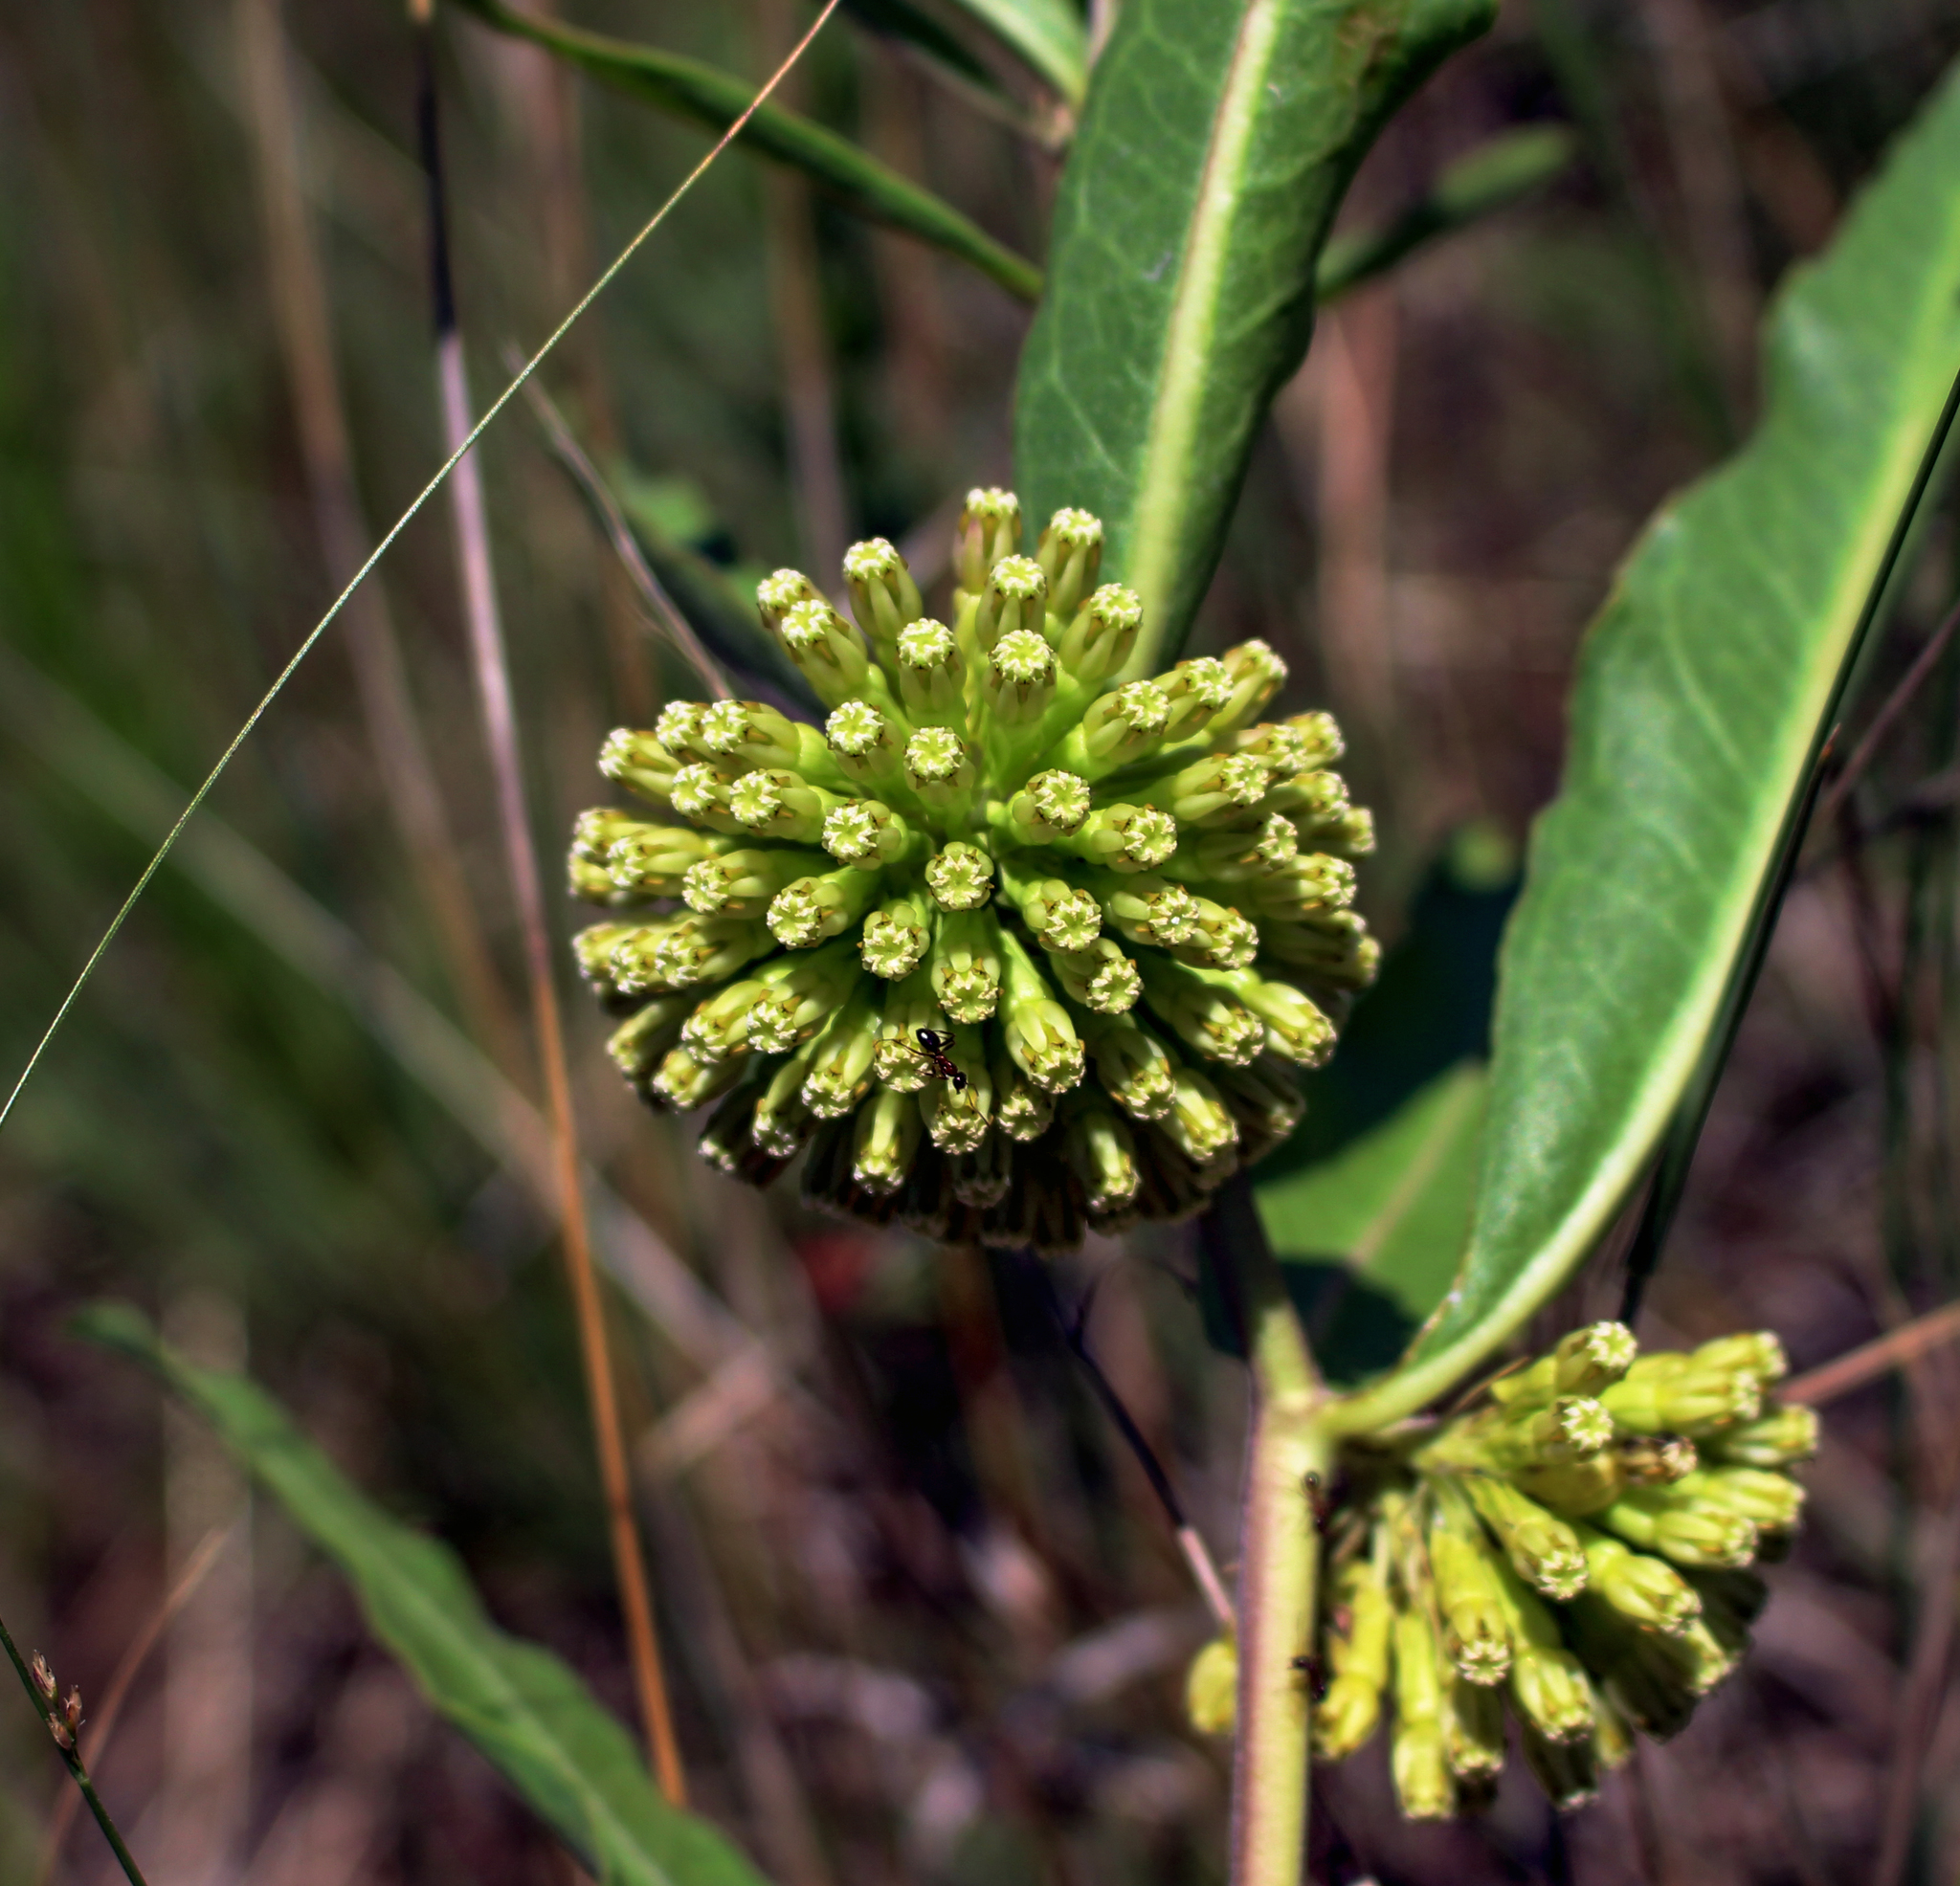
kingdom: Plantae
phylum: Tracheophyta
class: Magnoliopsida
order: Gentianales
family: Apocynaceae
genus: Asclepias
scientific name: Asclepias viridiflora
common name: Green comet milkweed
